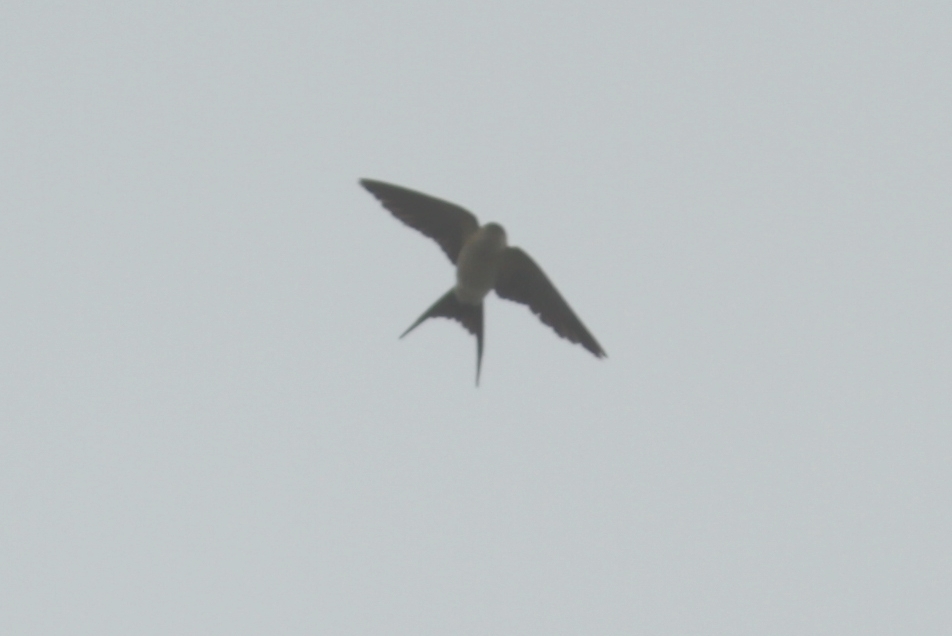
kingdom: Animalia
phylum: Chordata
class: Aves
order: Passeriformes
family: Hirundinidae
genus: Cecropis
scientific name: Cecropis daurica
